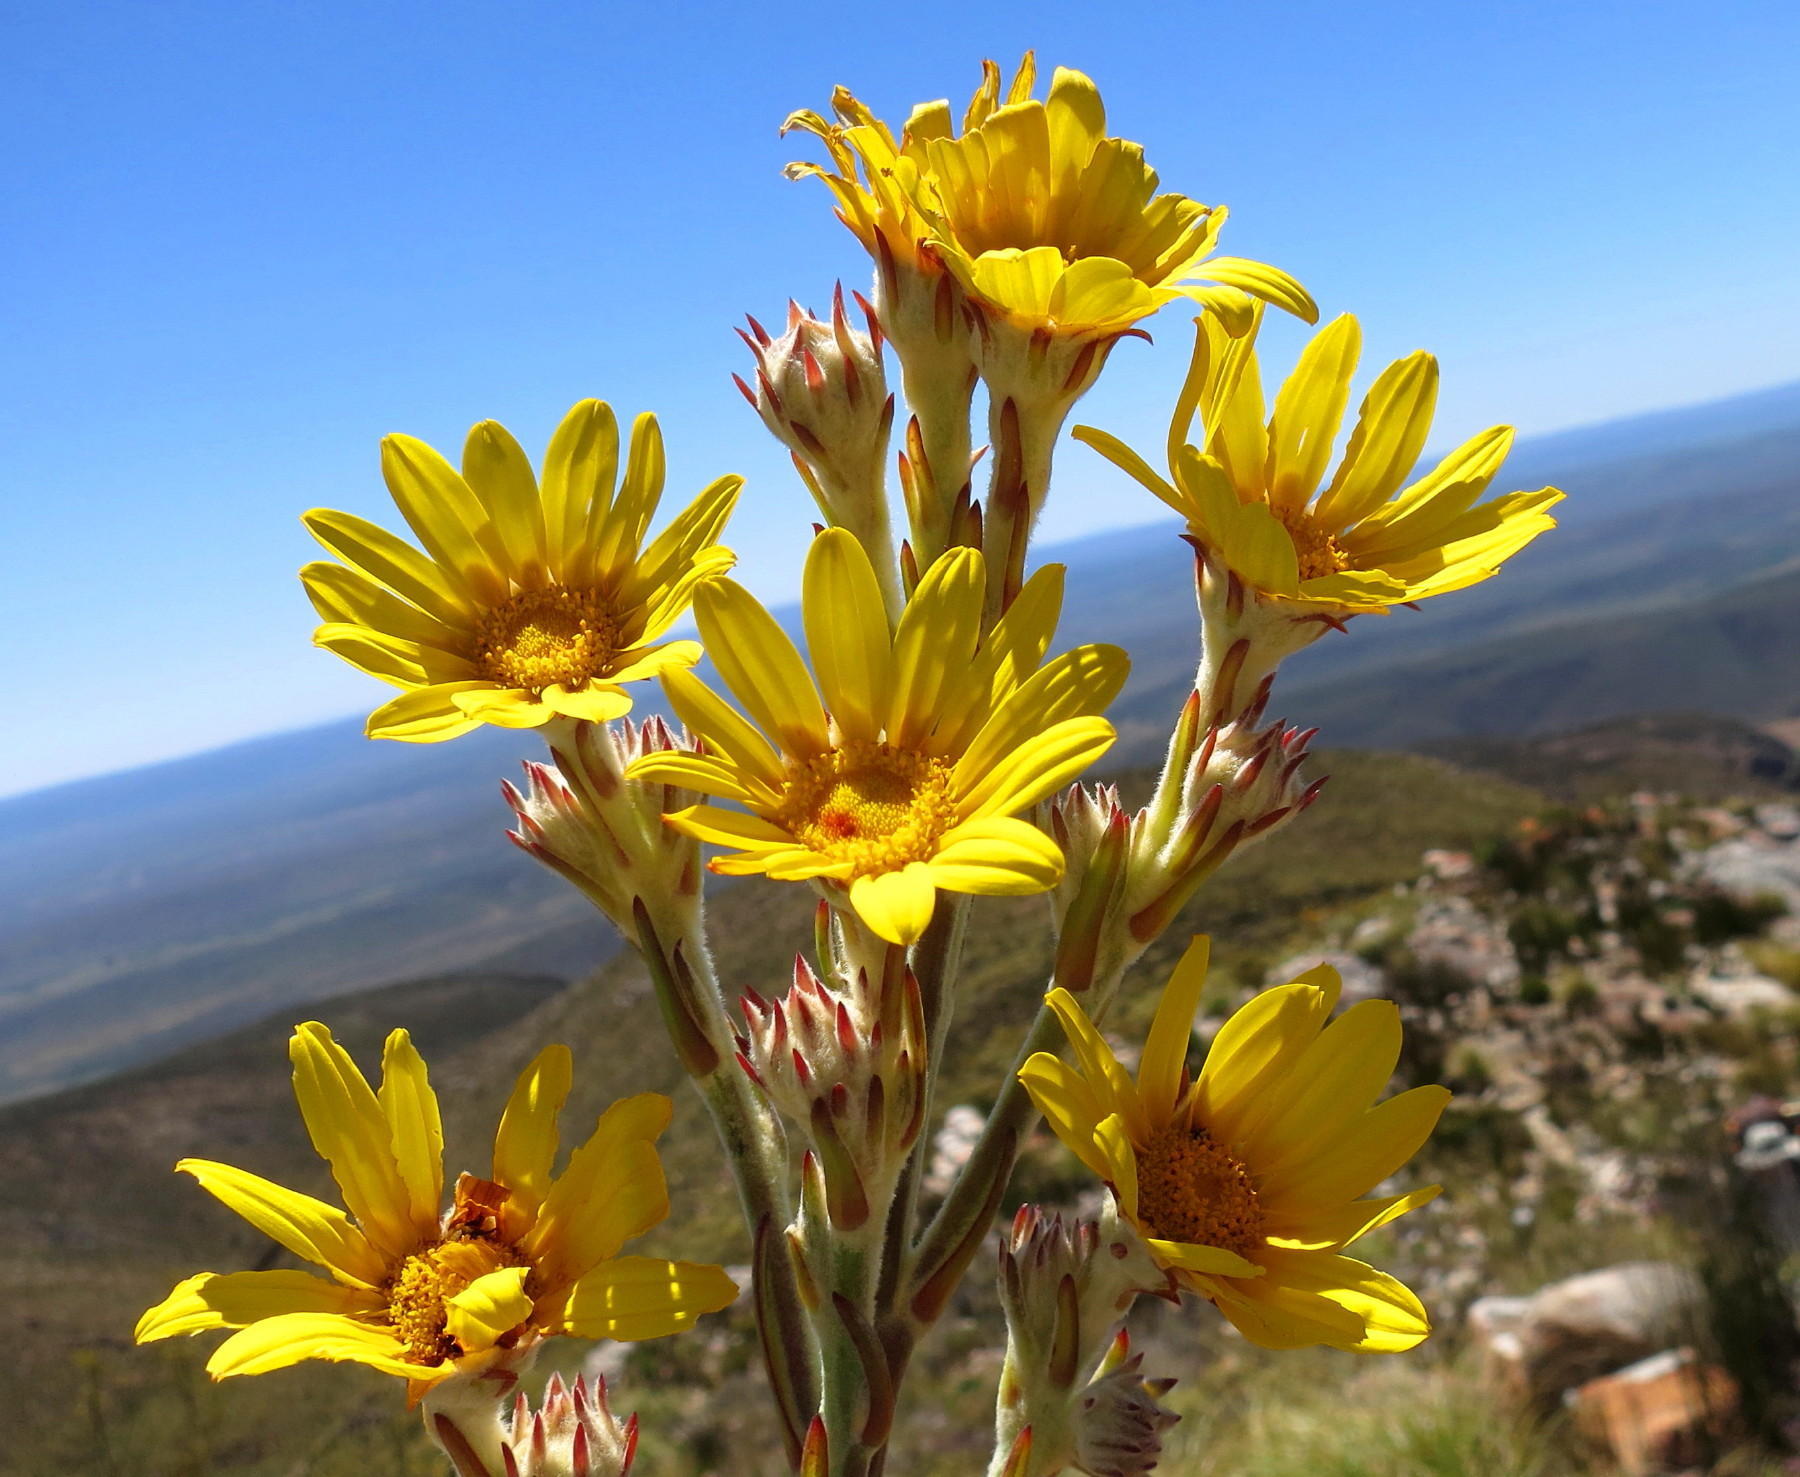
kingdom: Plantae
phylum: Tracheophyta
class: Magnoliopsida
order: Asterales
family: Asteraceae
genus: Osteospermum
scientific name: Osteospermum junceum
